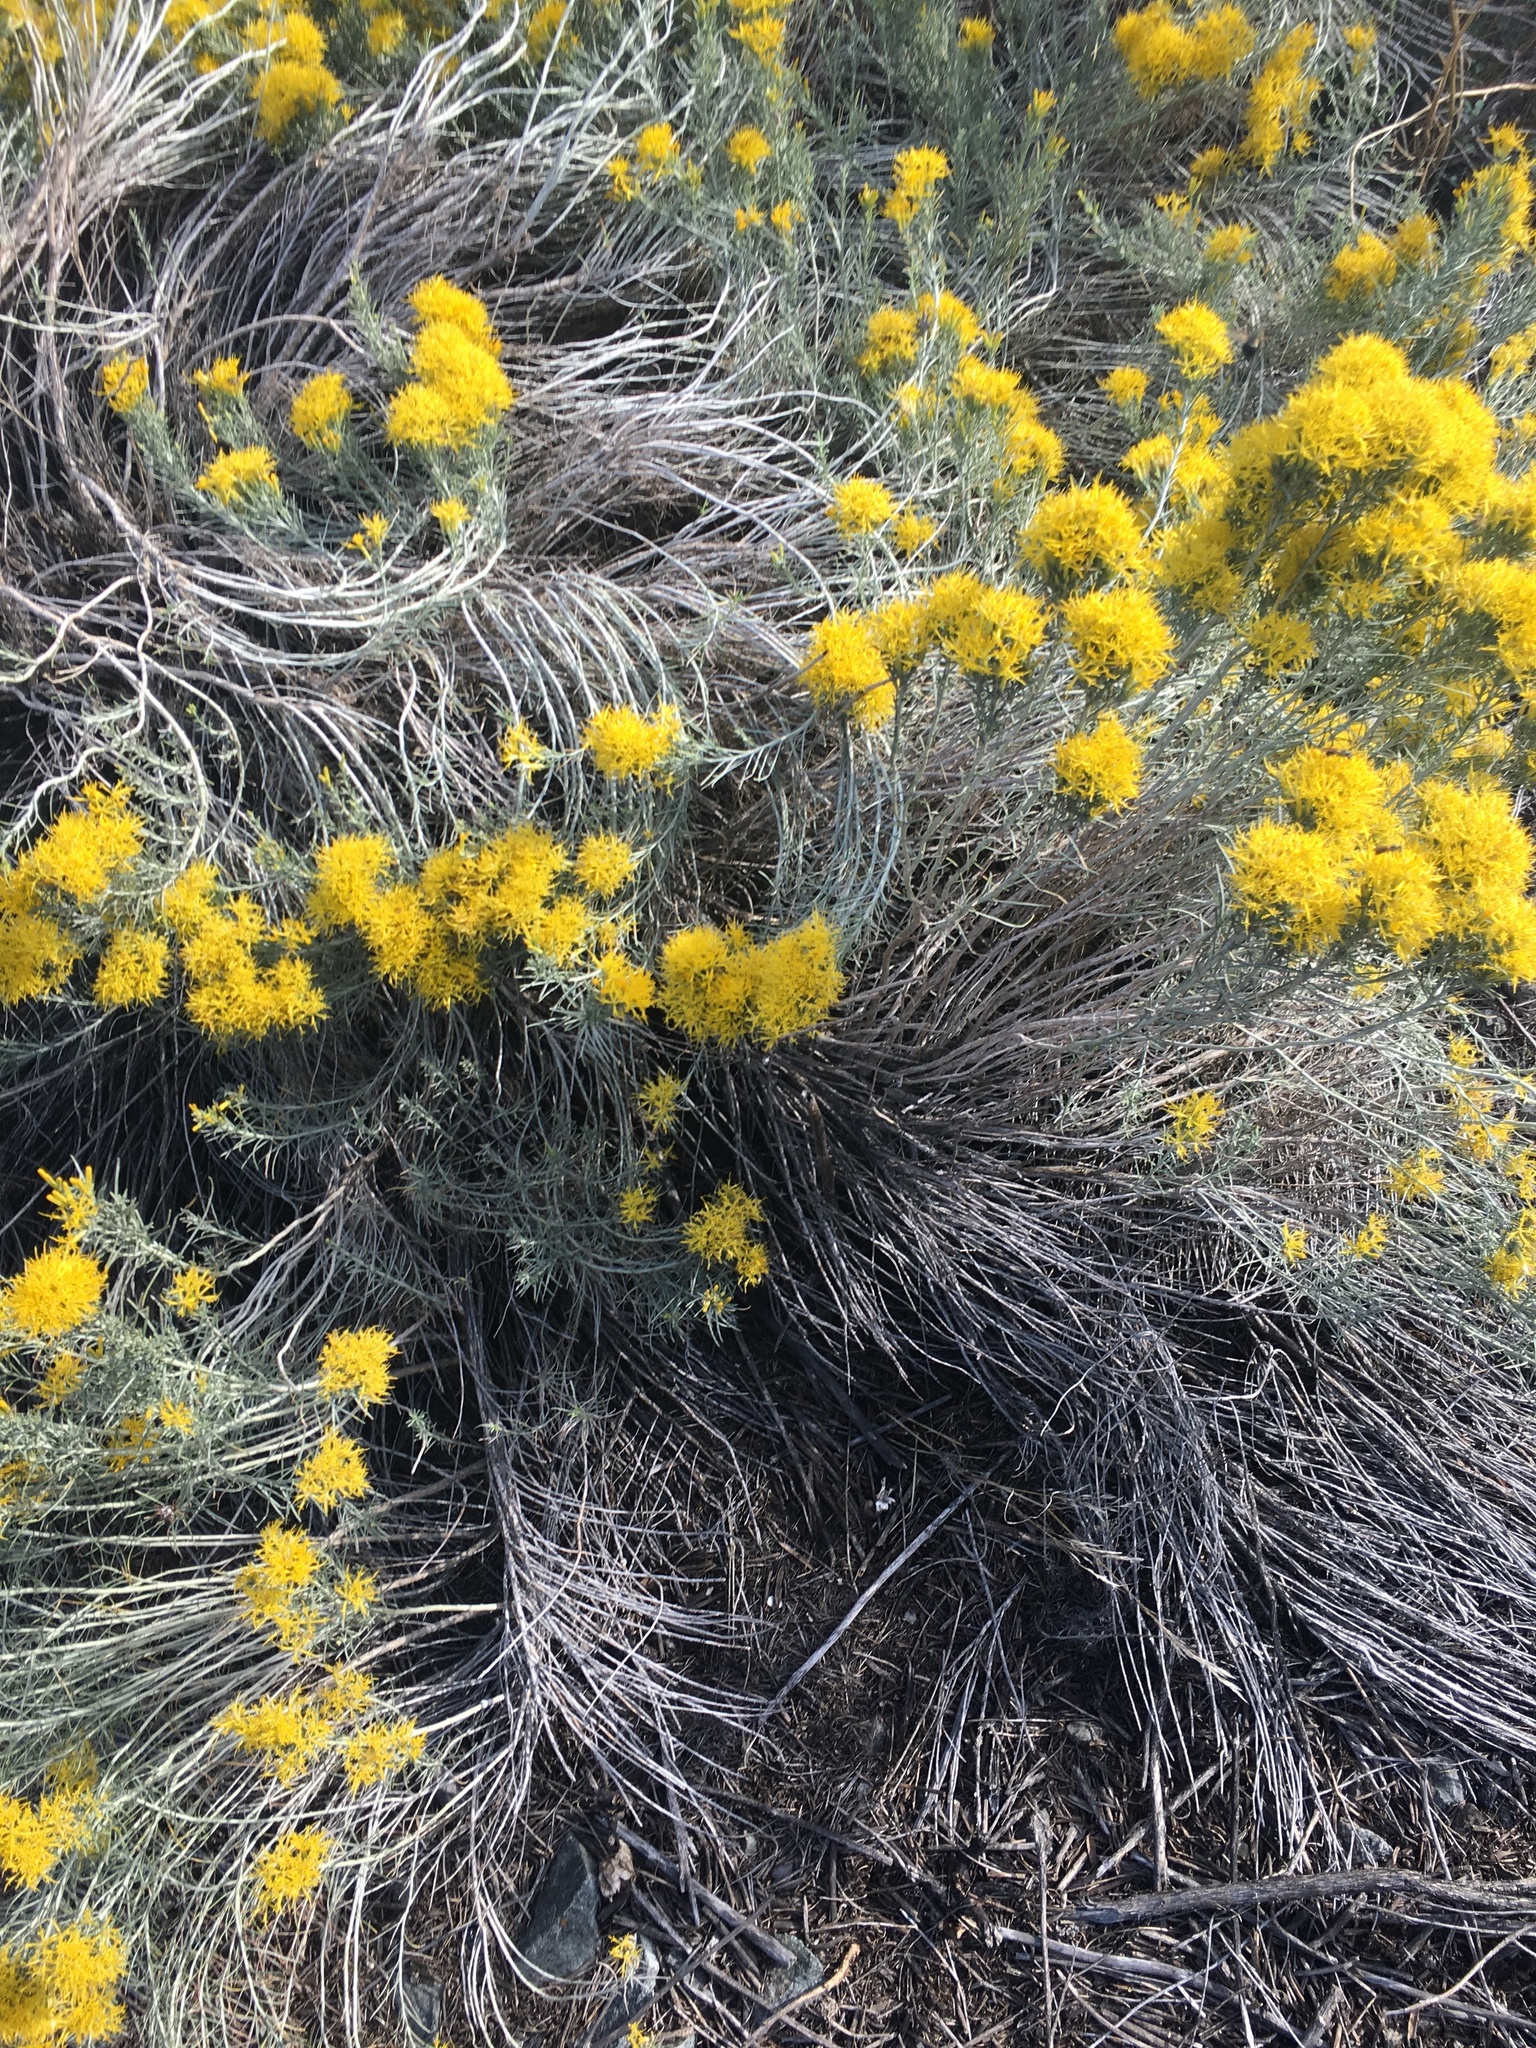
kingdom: Plantae
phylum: Tracheophyta
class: Magnoliopsida
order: Asterales
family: Asteraceae
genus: Ericameria
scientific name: Ericameria nauseosa
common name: Rubber rabbitbrush
